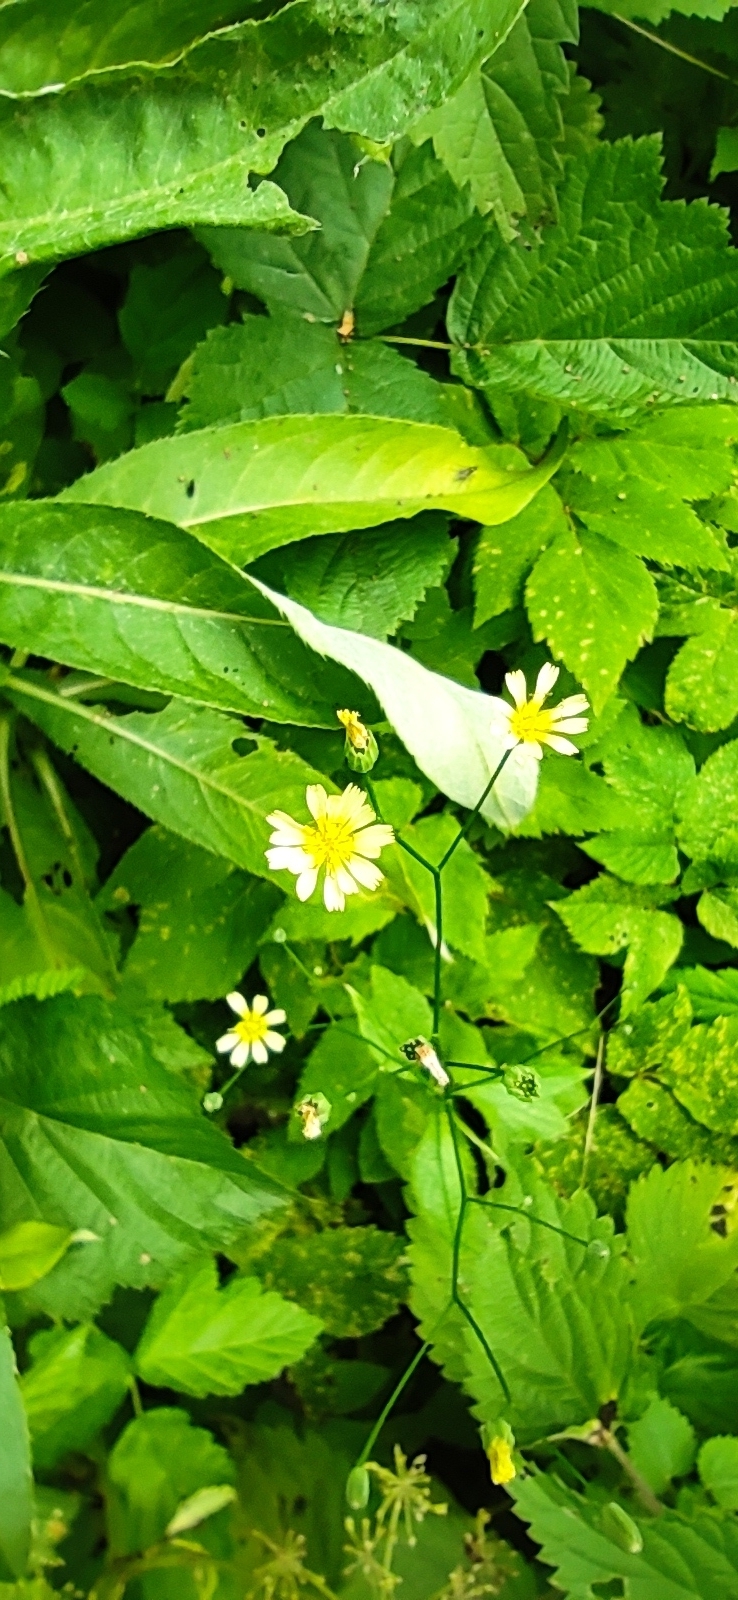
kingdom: Plantae
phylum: Tracheophyta
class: Magnoliopsida
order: Asterales
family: Asteraceae
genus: Lapsana
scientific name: Lapsana communis
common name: Nipplewort
